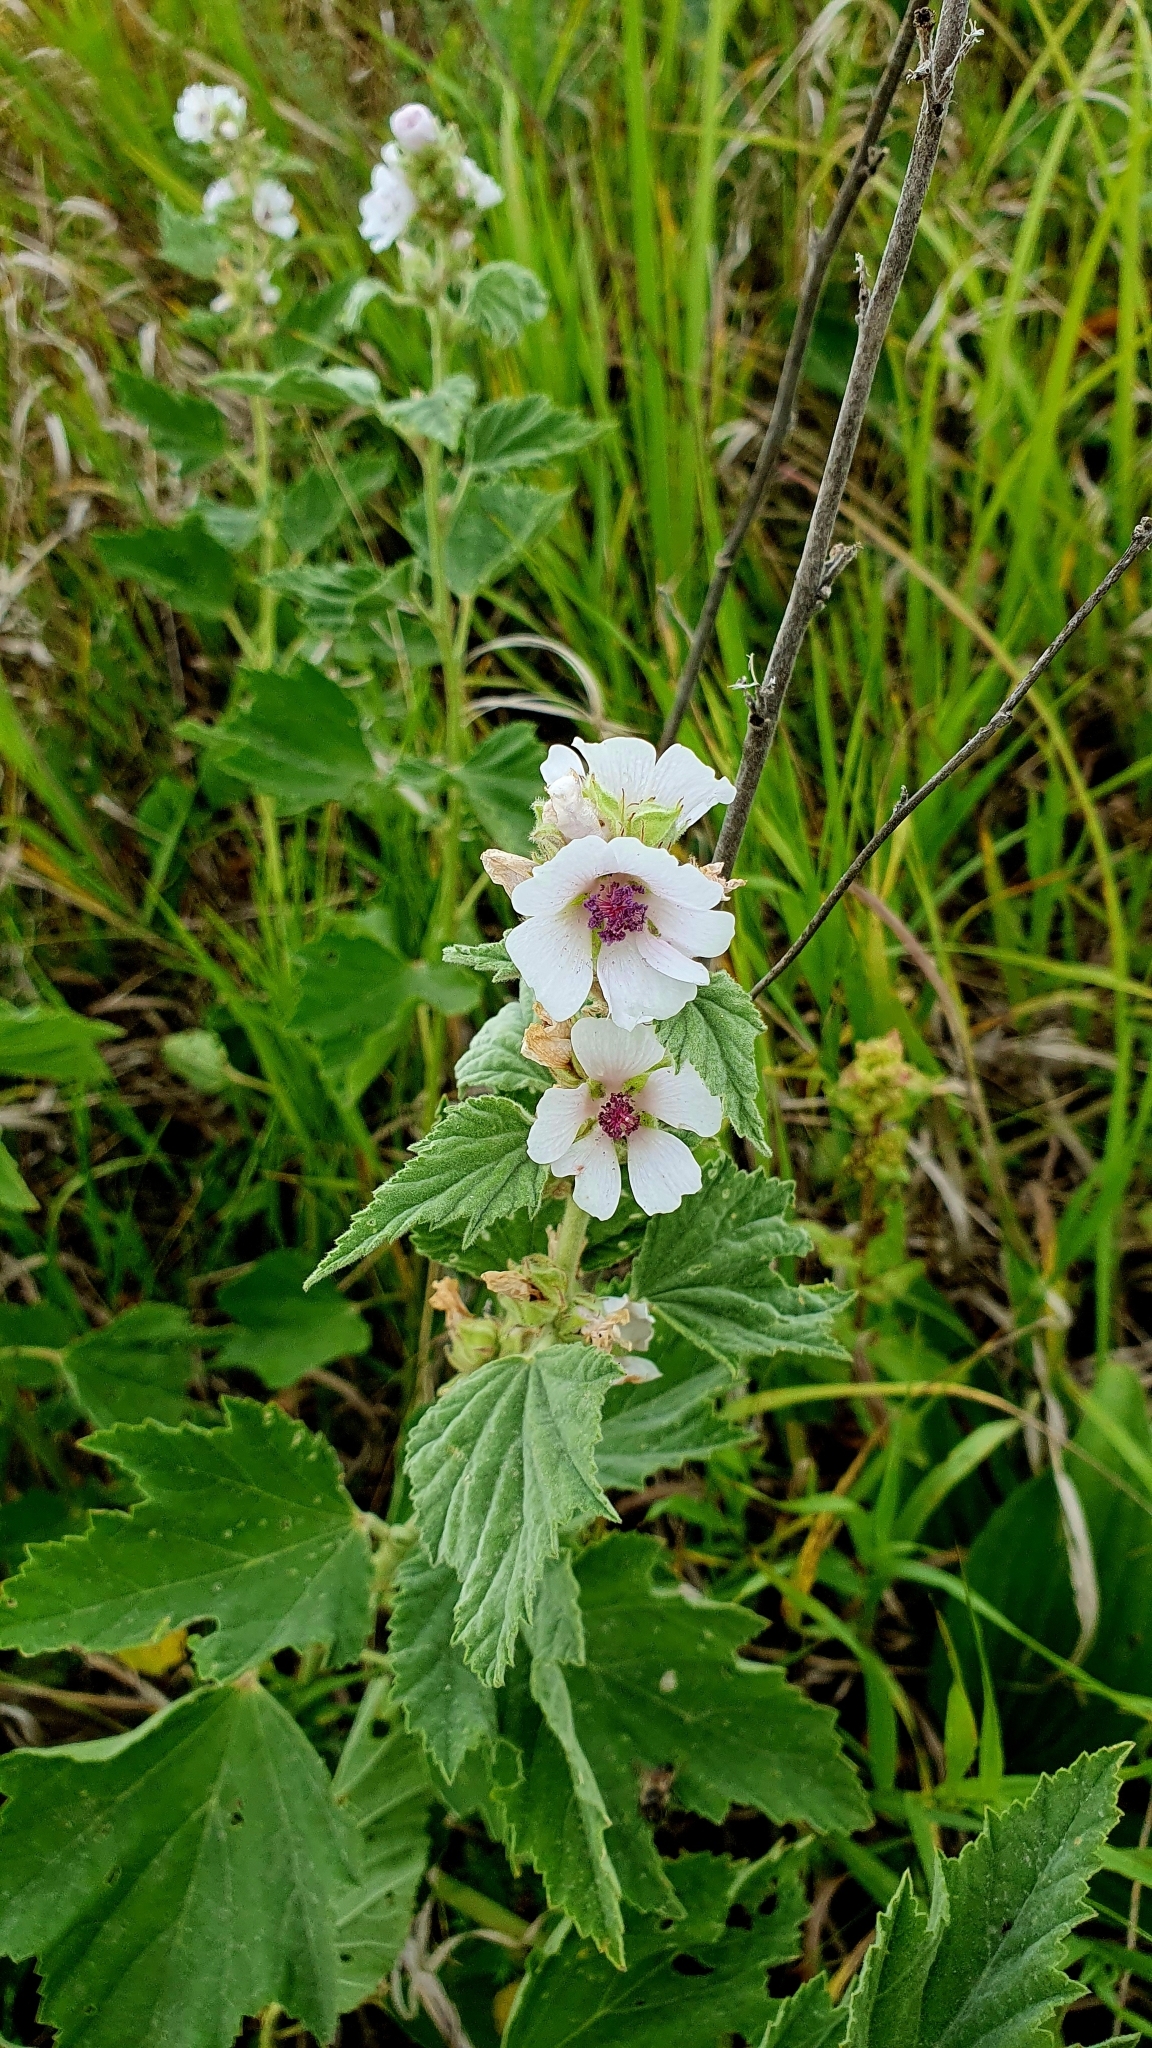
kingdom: Plantae
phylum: Tracheophyta
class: Magnoliopsida
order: Malvales
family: Malvaceae
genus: Althaea
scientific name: Althaea officinalis
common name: Marsh-mallow
